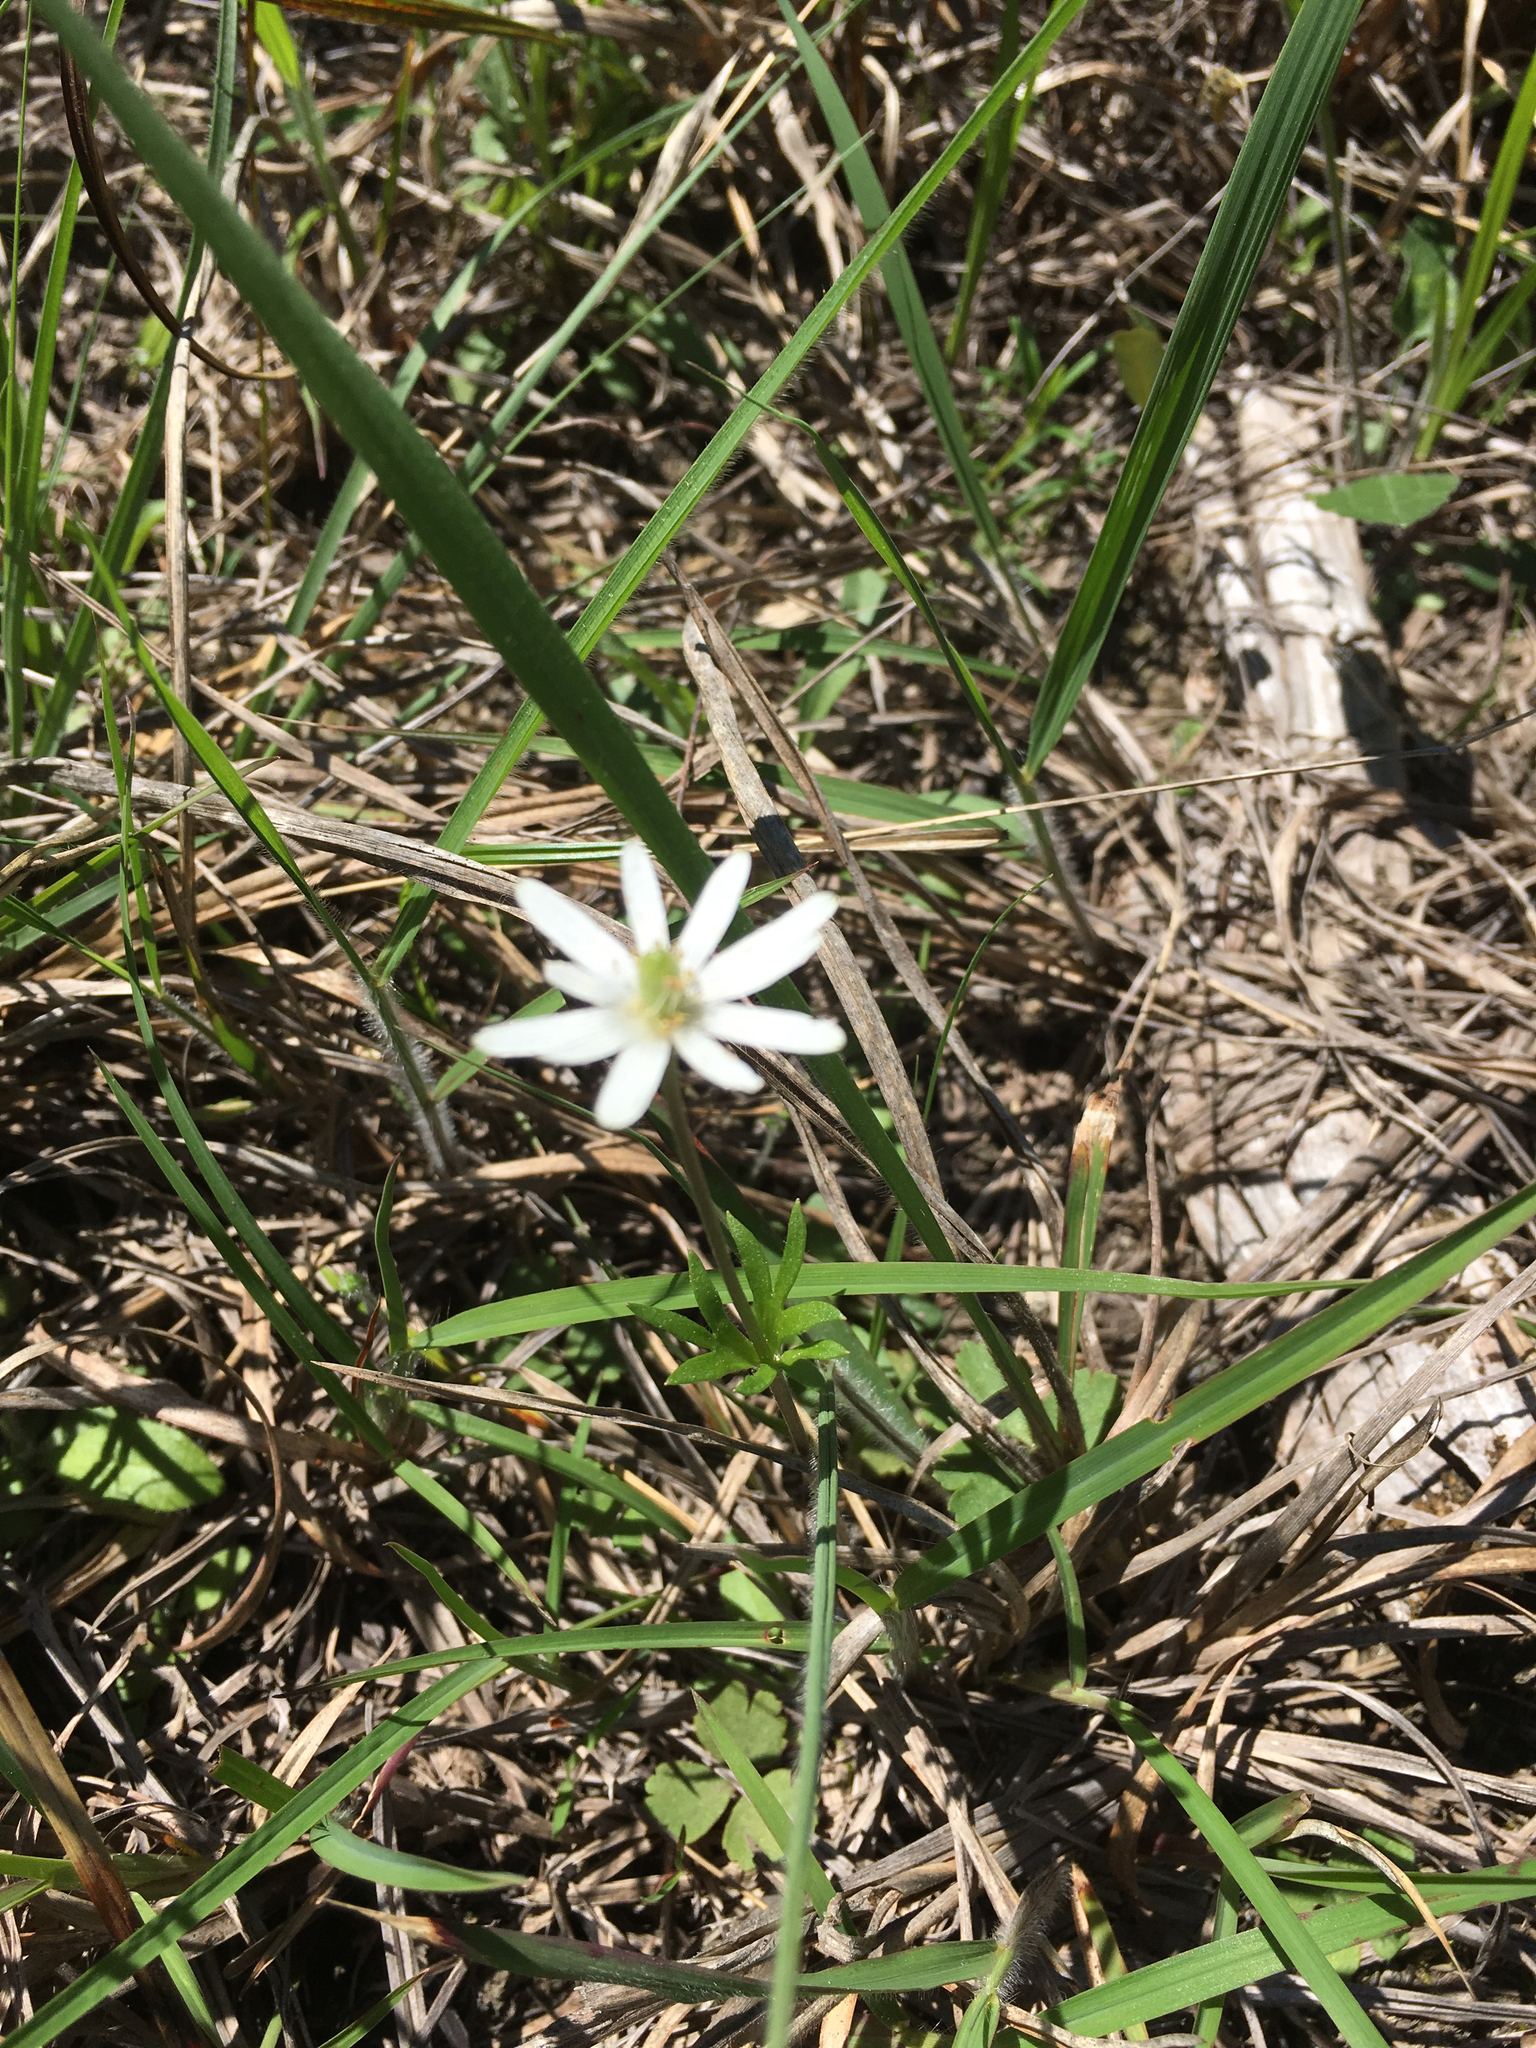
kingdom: Plantae
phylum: Tracheophyta
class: Magnoliopsida
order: Ranunculales
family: Ranunculaceae
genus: Anemone
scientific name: Anemone berlandieri
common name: Ten-petal anemone
